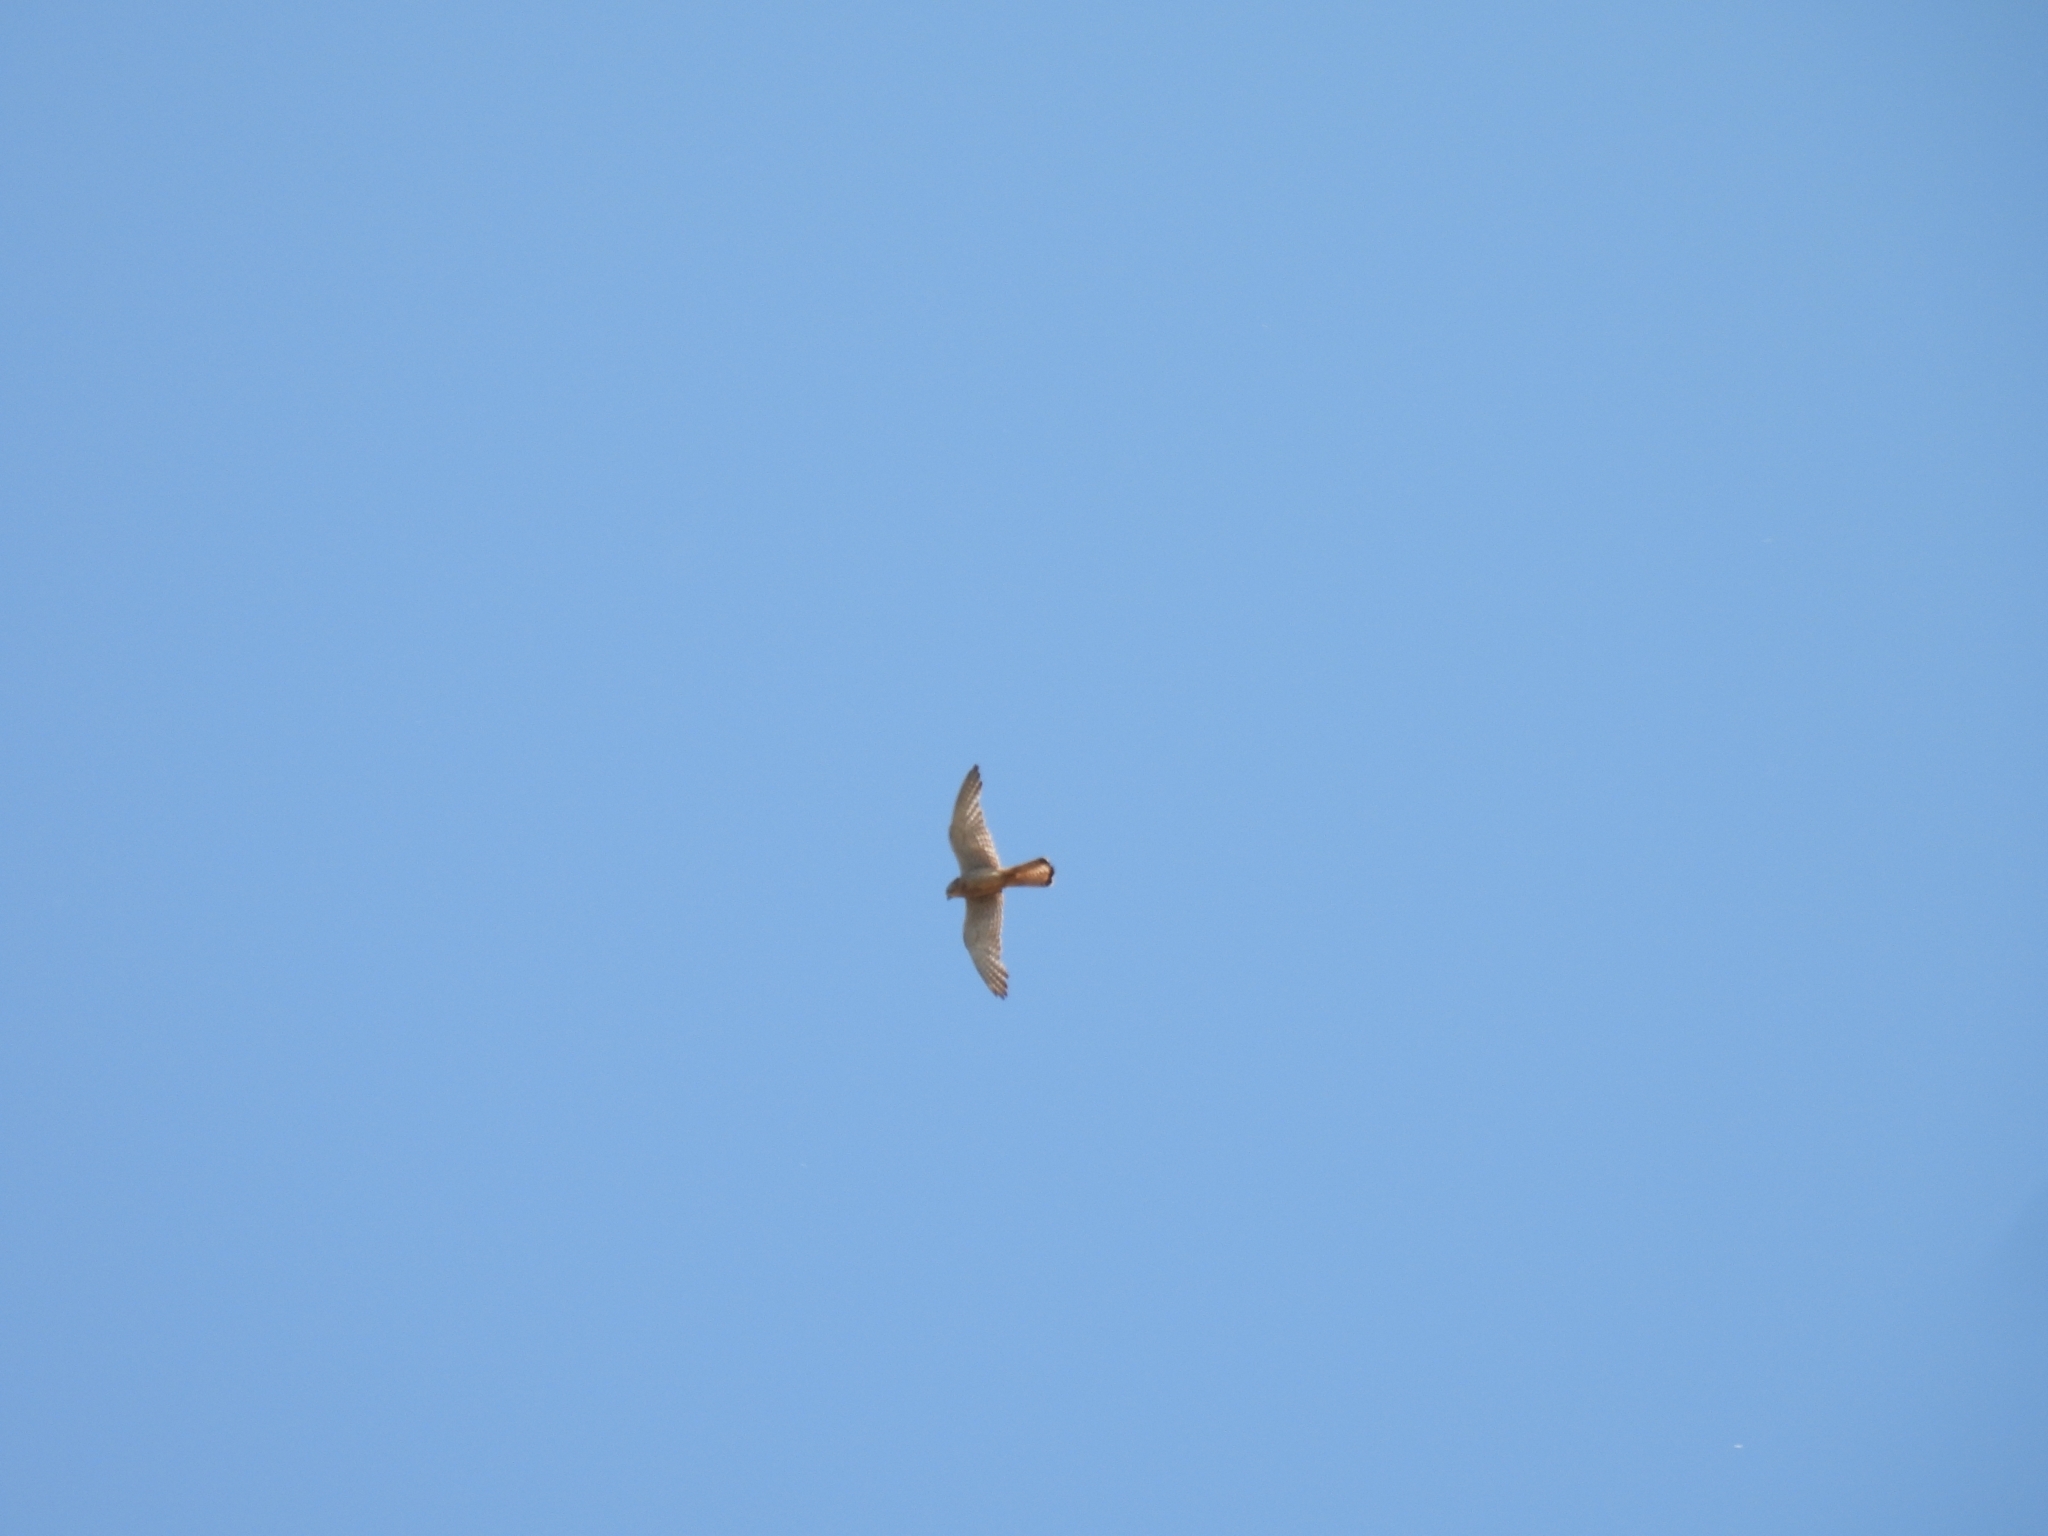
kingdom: Animalia
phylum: Chordata
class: Aves
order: Falconiformes
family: Falconidae
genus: Falco
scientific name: Falco tinnunculus
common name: Common kestrel
